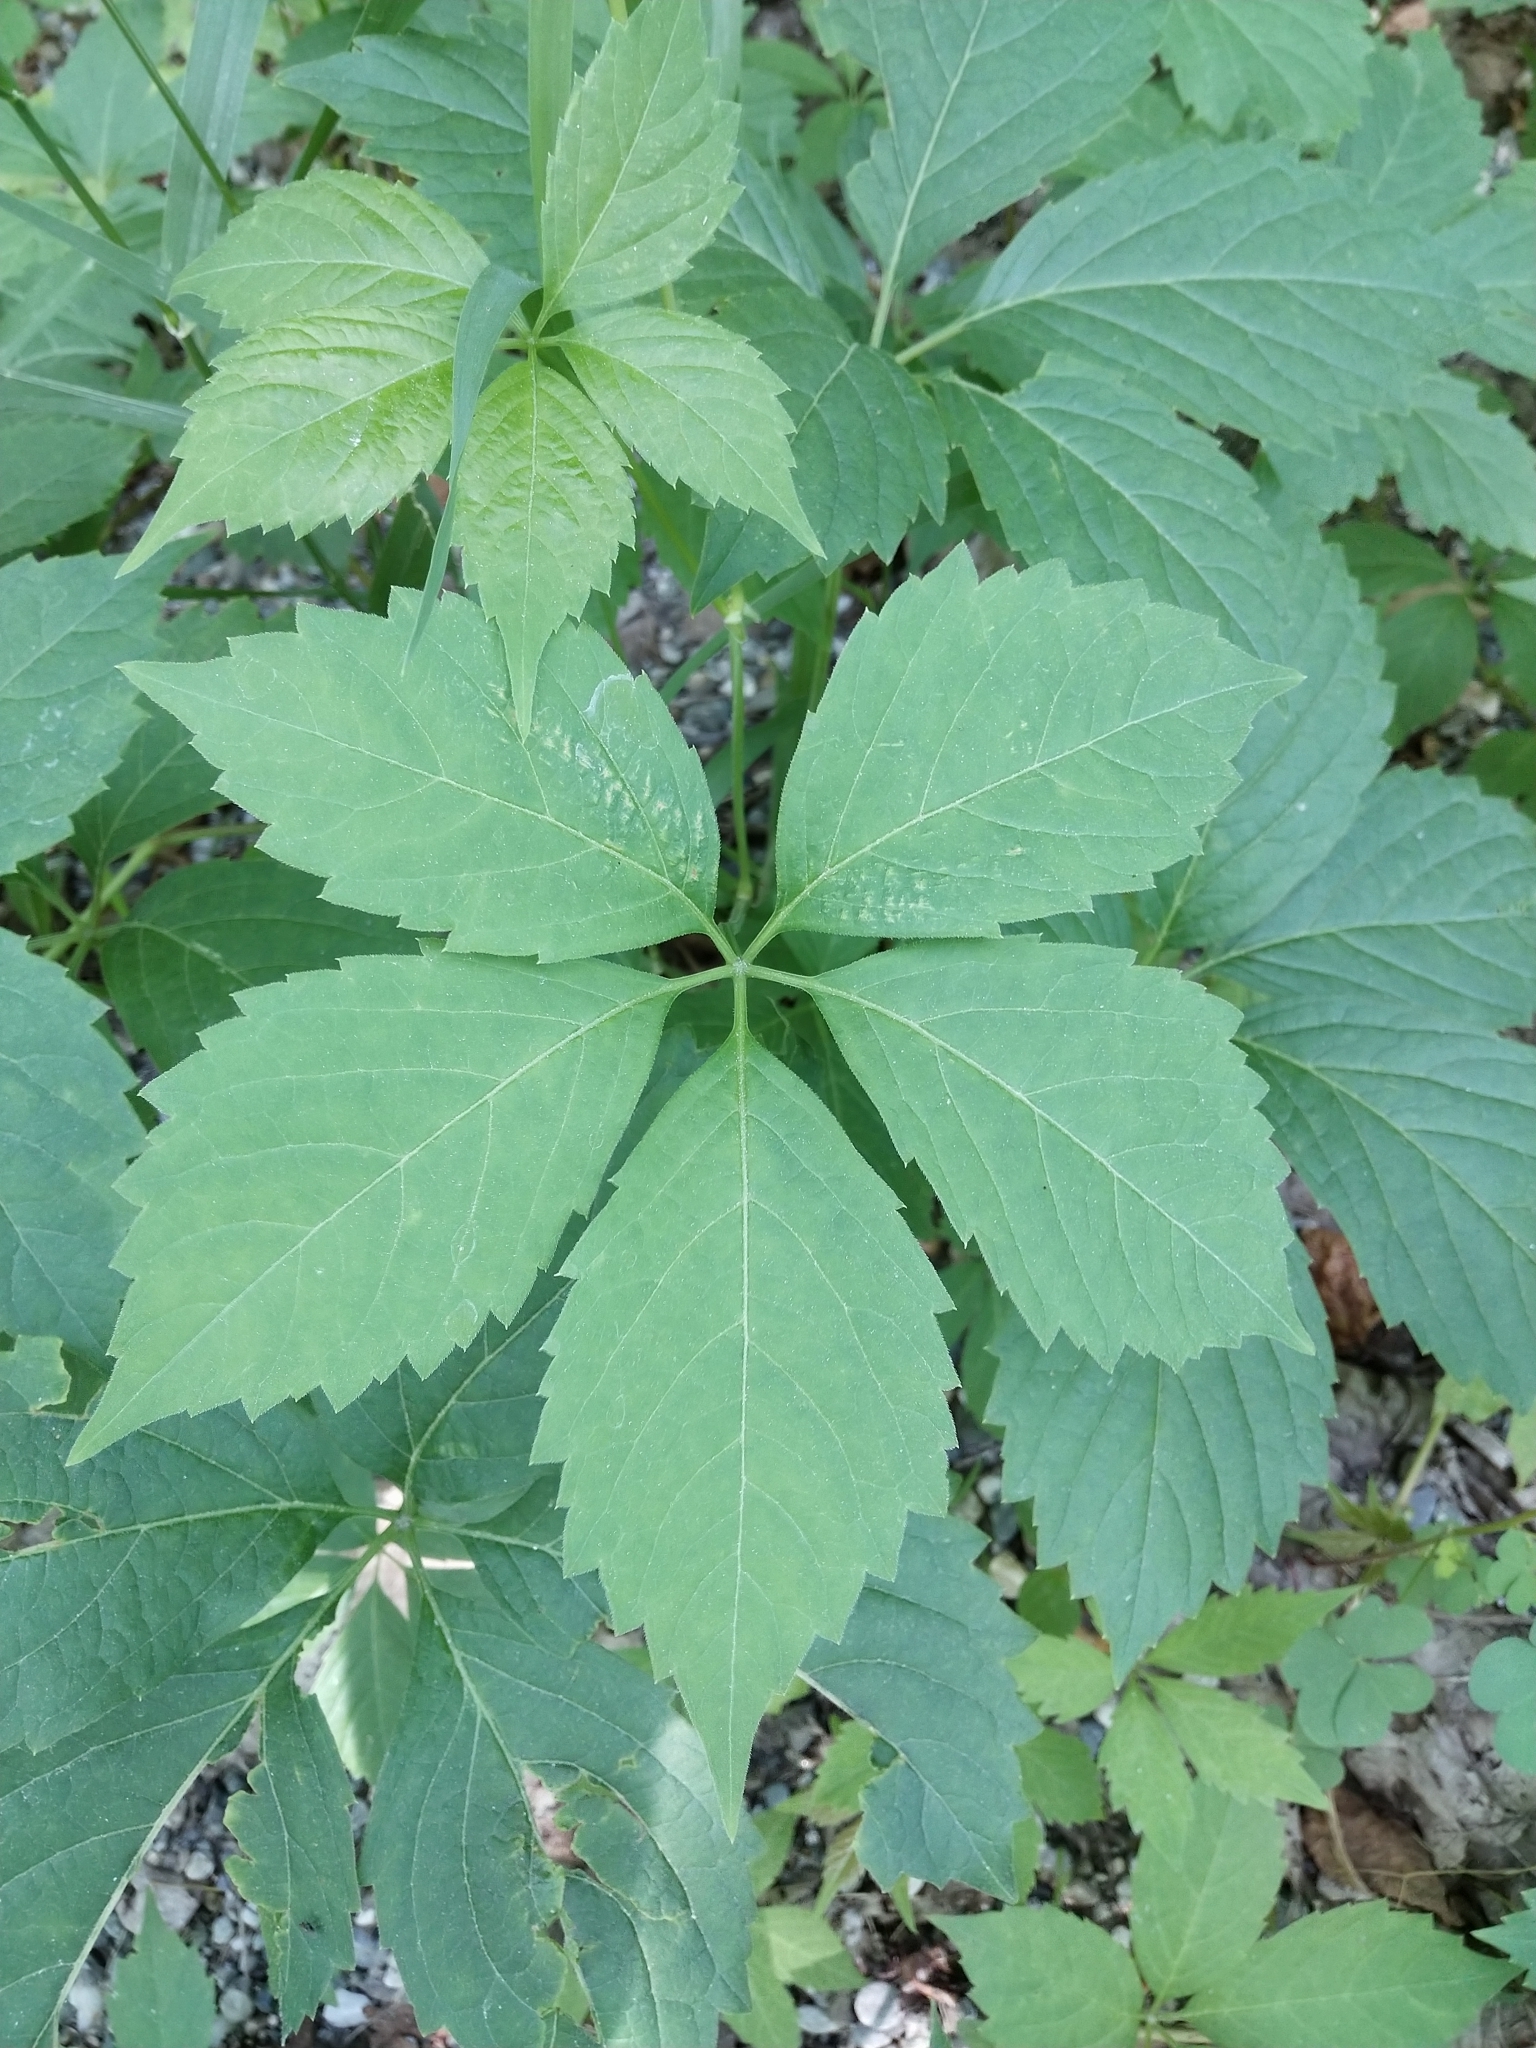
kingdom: Plantae
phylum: Tracheophyta
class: Magnoliopsida
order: Vitales
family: Vitaceae
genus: Parthenocissus
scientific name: Parthenocissus quinquefolia
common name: Virginia-creeper
